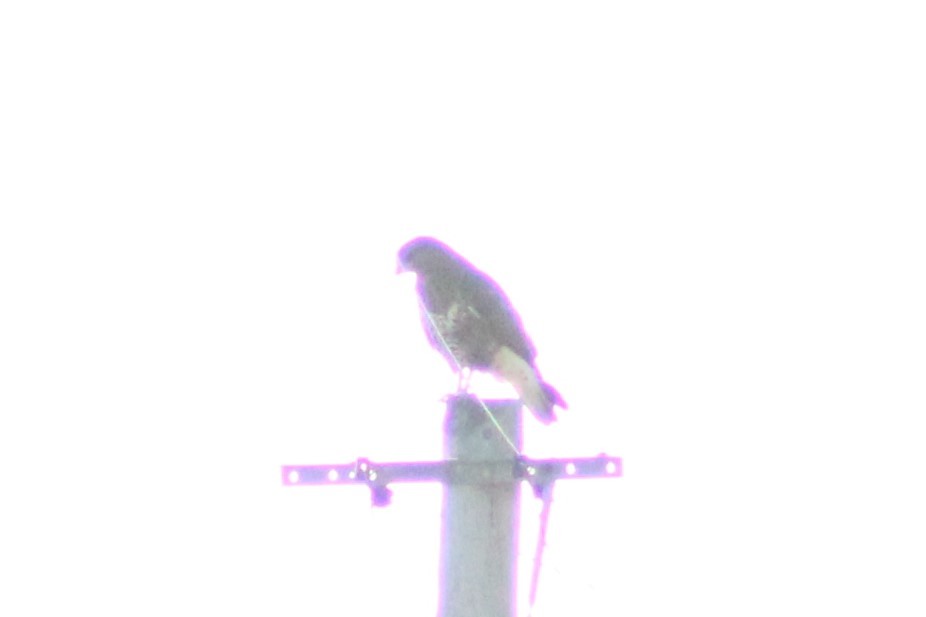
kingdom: Animalia
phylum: Chordata
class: Aves
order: Accipitriformes
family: Accipitridae
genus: Buteo
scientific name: Buteo buteo
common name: Common buzzard
